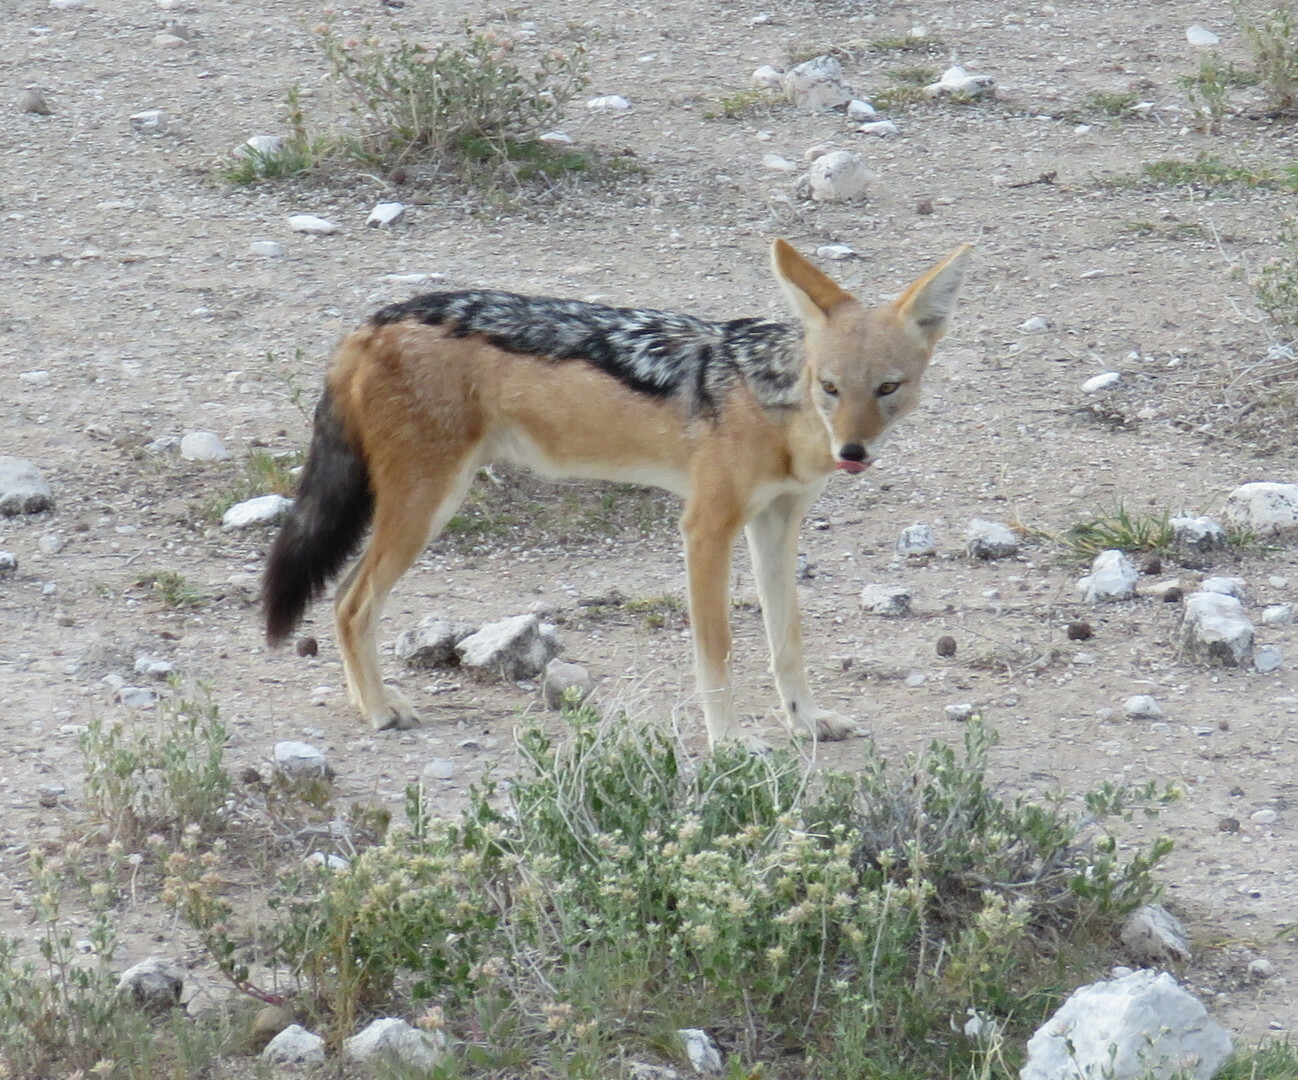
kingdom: Animalia
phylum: Chordata
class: Mammalia
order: Carnivora
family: Canidae
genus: Lupulella
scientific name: Lupulella
